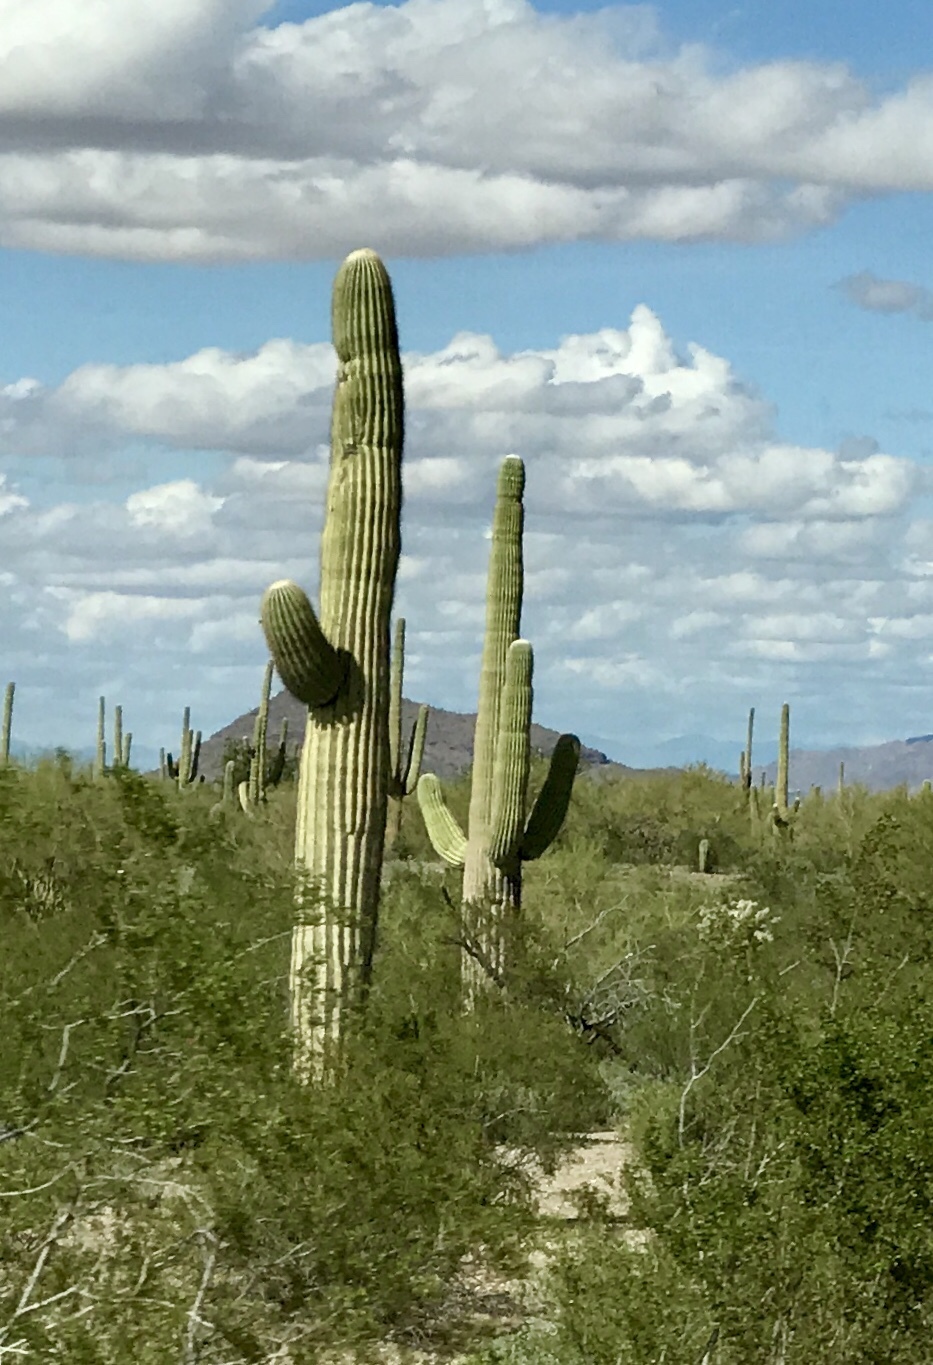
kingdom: Plantae
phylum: Tracheophyta
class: Magnoliopsida
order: Caryophyllales
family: Cactaceae
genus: Carnegiea
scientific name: Carnegiea gigantea
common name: Saguaro
